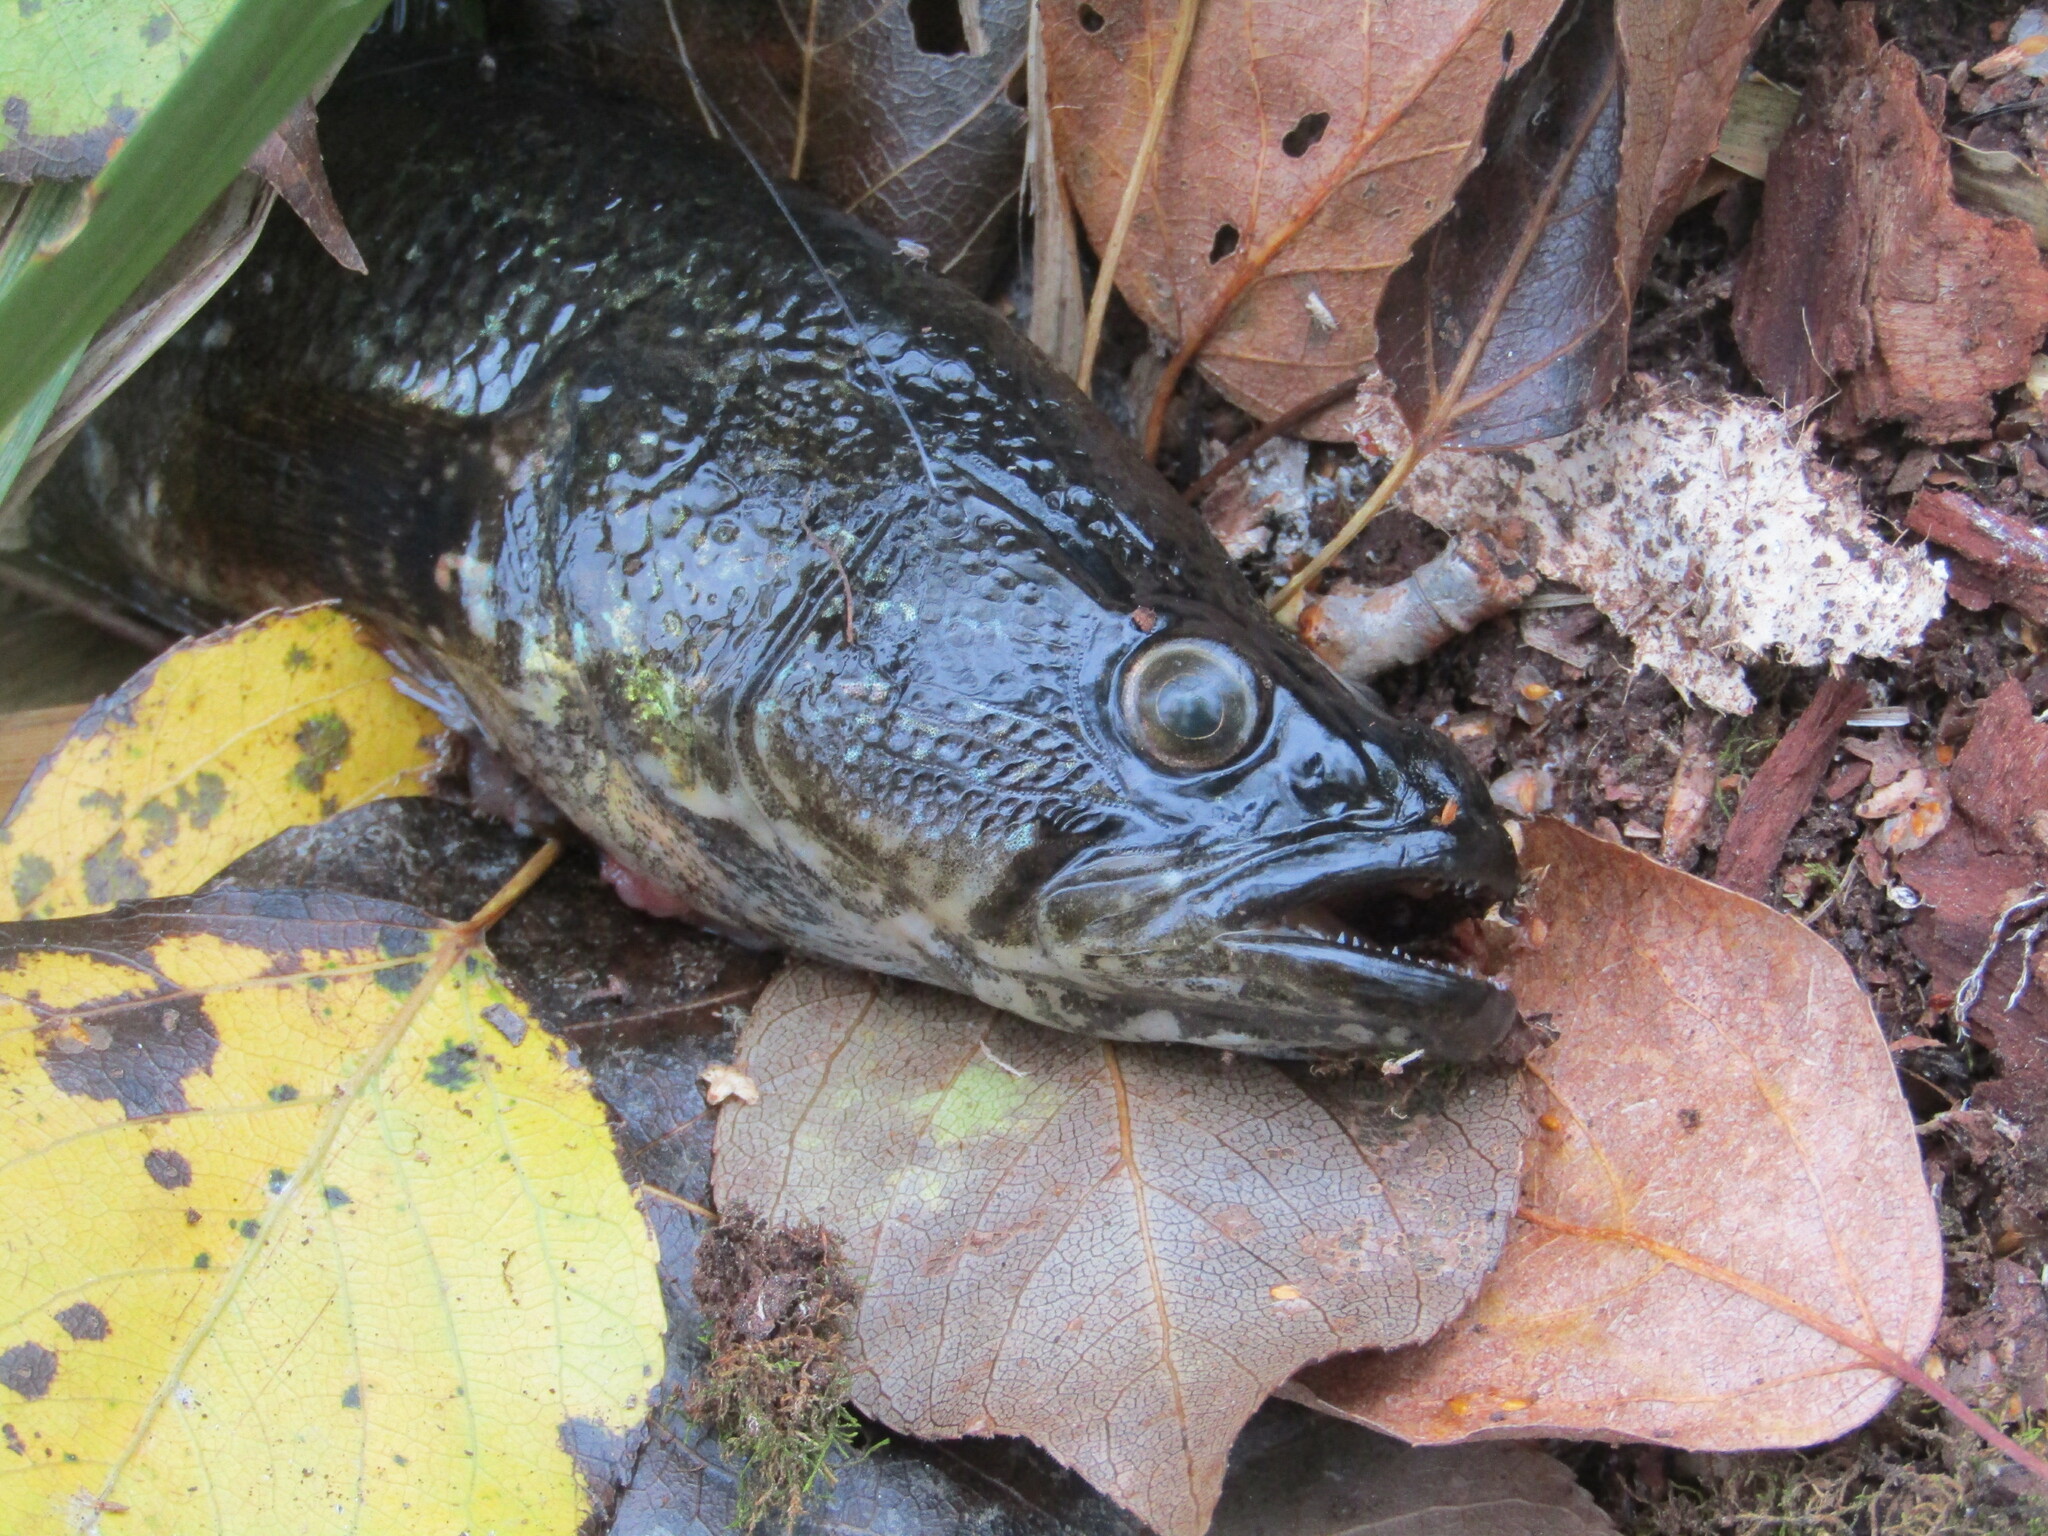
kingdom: Animalia
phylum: Chordata
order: Perciformes
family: Odontobutidae
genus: Perccottus
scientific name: Perccottus glenii
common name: Amur sleeper
